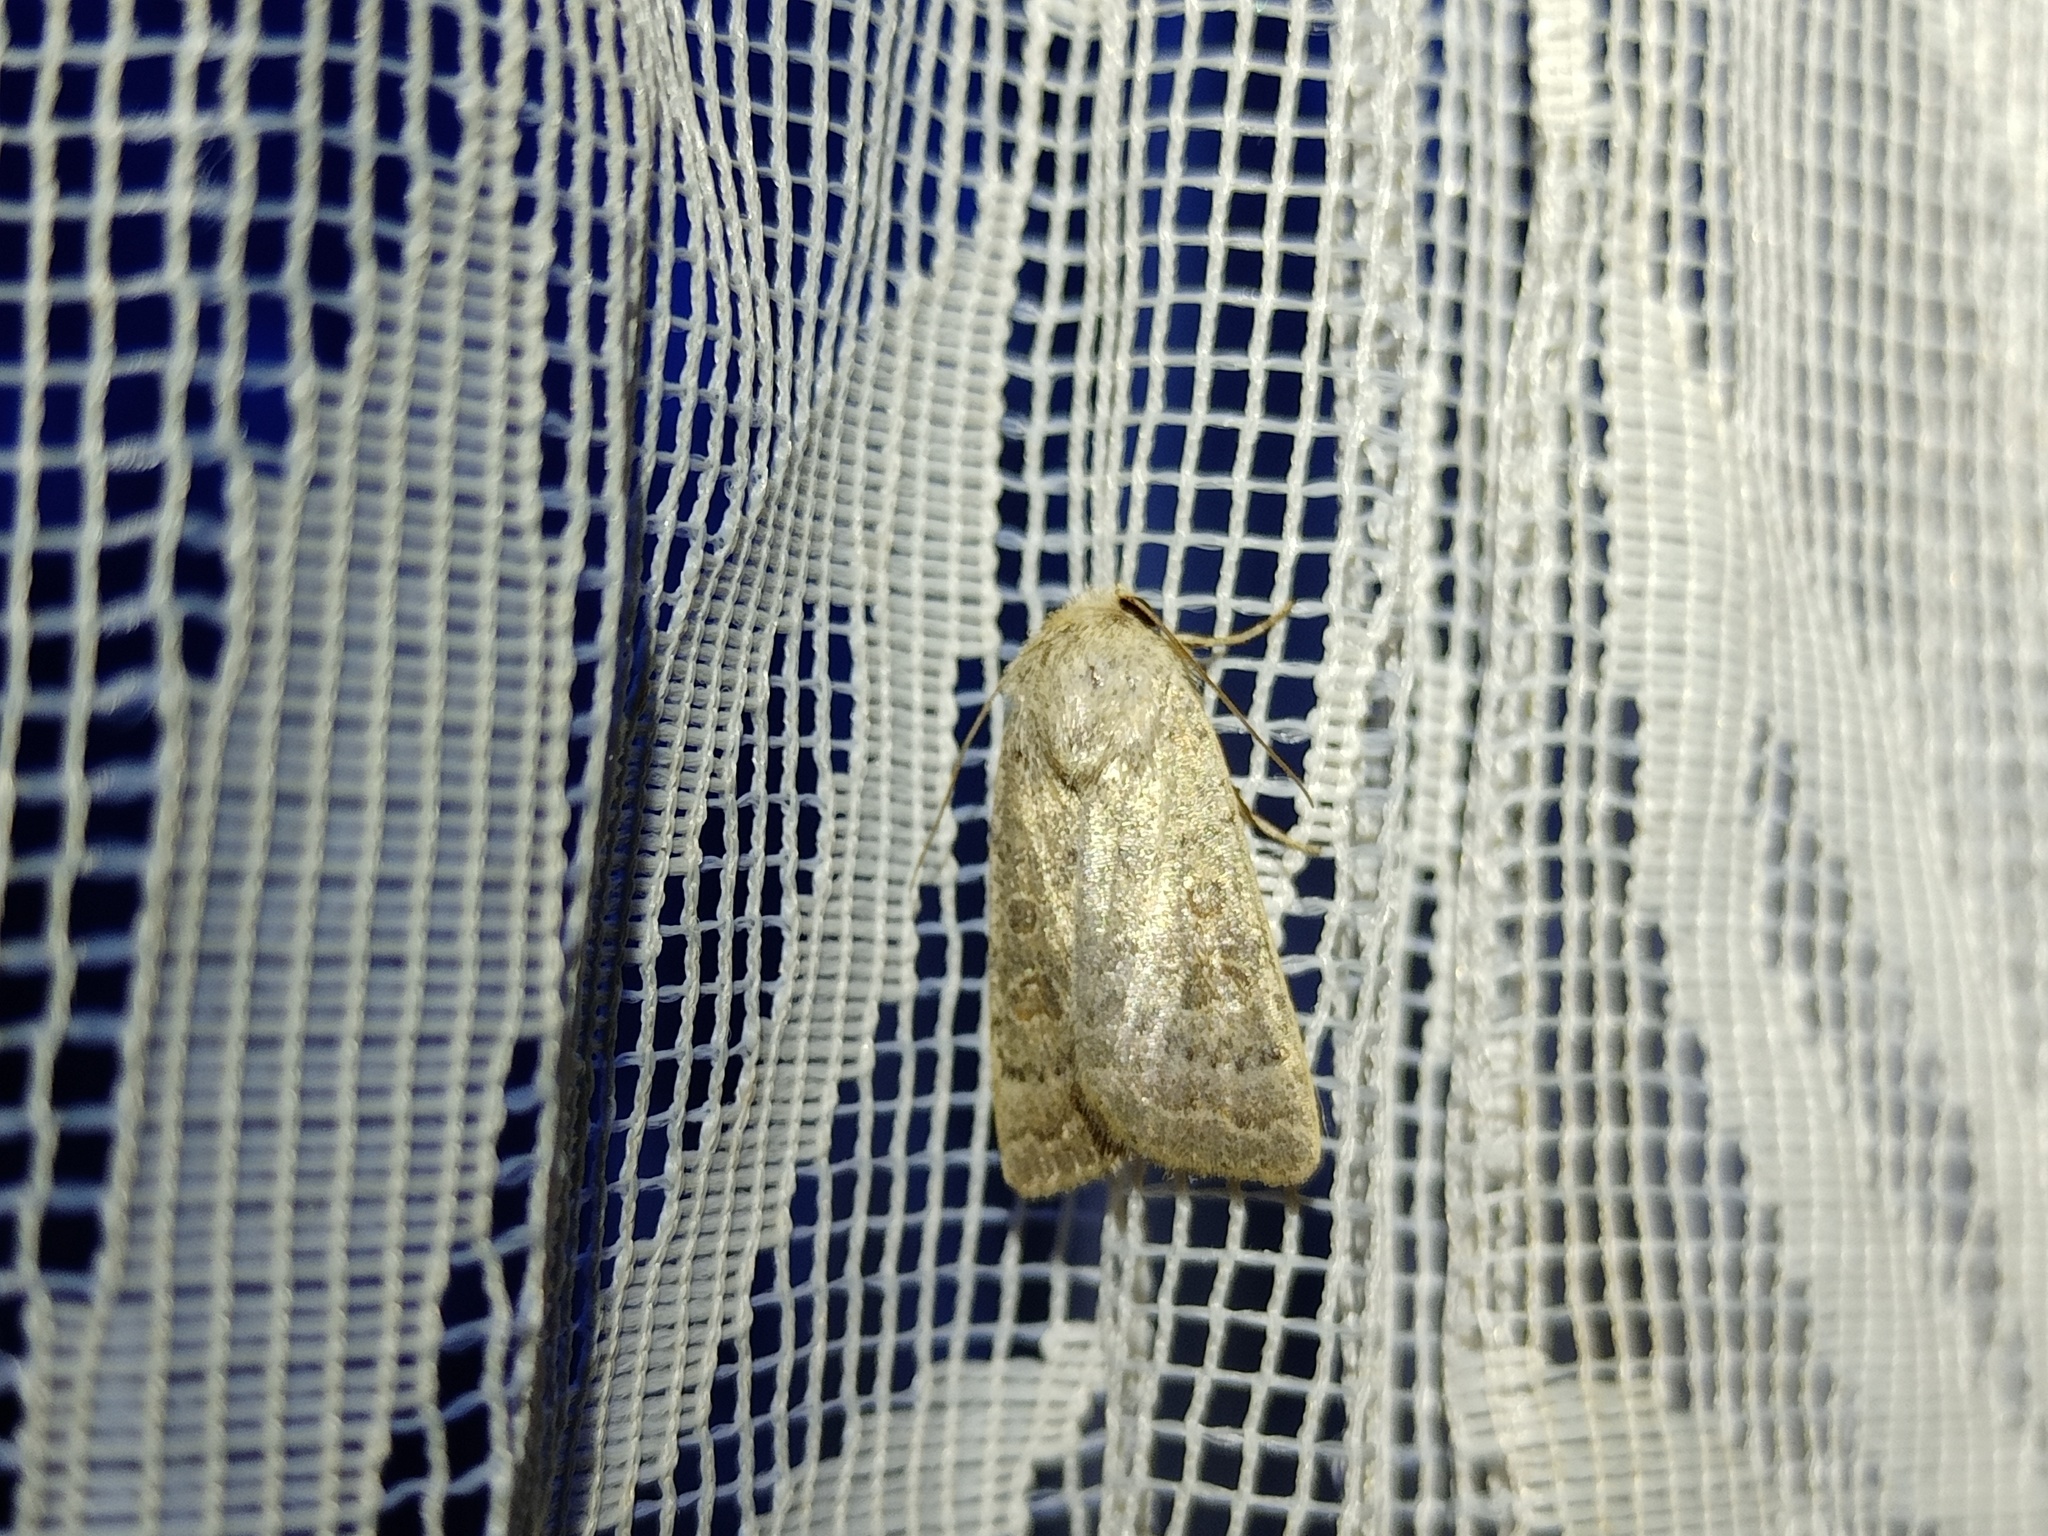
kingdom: Animalia
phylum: Arthropoda
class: Insecta
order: Lepidoptera
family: Noctuidae
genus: Hoplodrina
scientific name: Hoplodrina ambigua
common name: Vine's rustic
